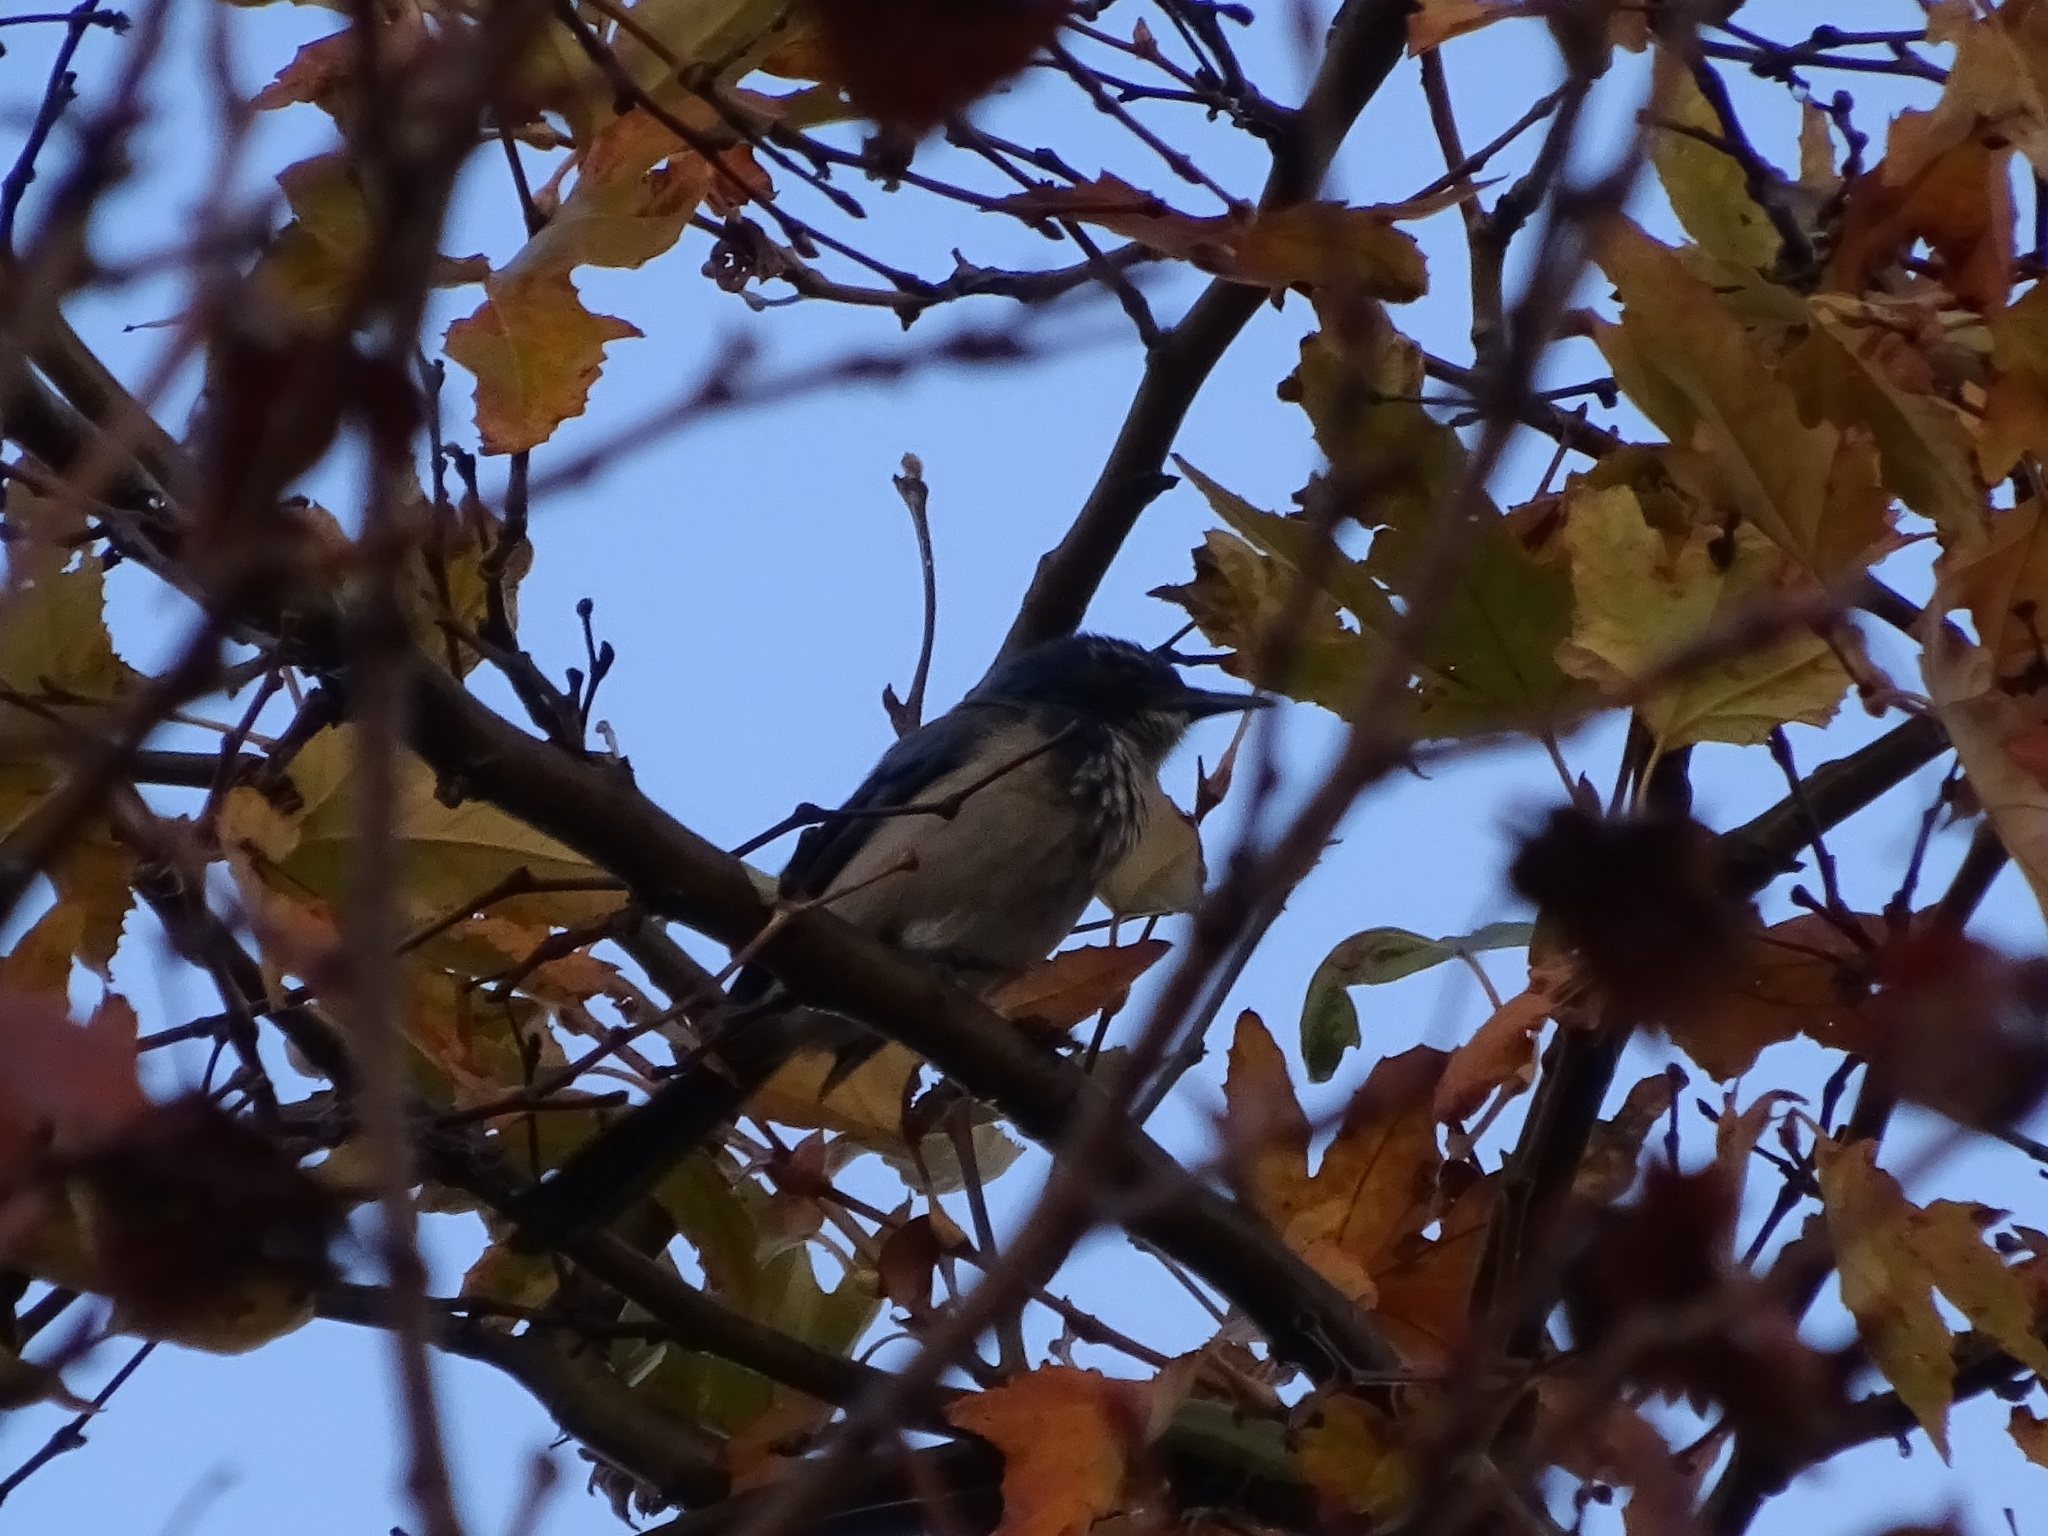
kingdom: Animalia
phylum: Chordata
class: Aves
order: Passeriformes
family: Corvidae
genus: Aphelocoma
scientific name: Aphelocoma californica
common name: California scrub-jay
